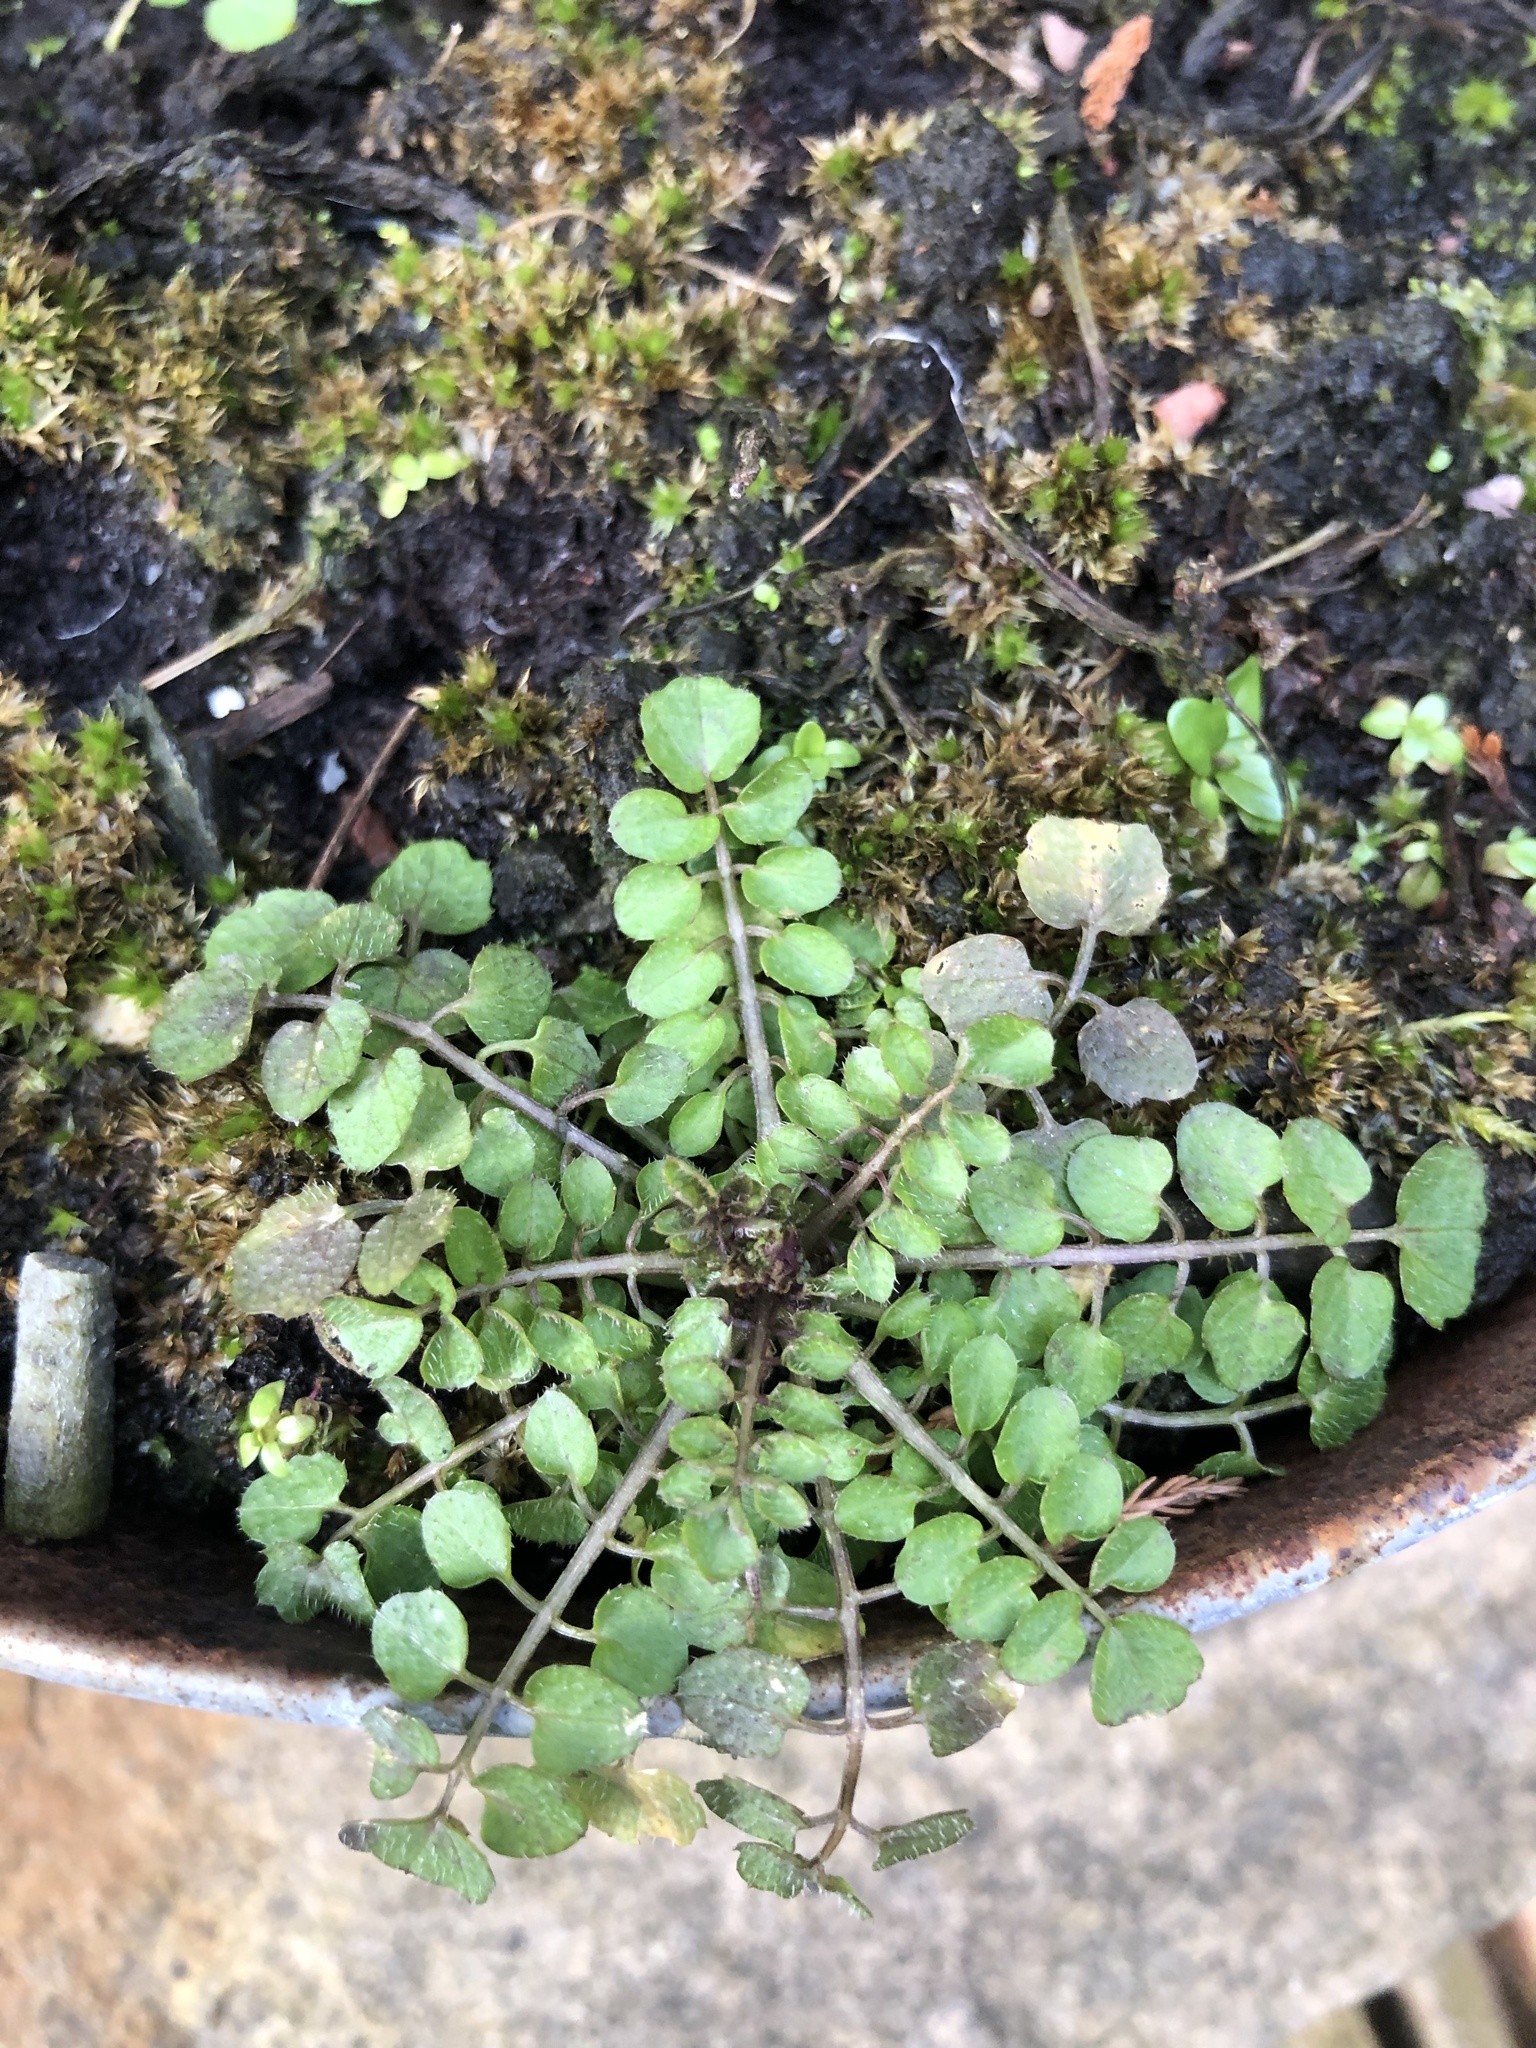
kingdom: Plantae
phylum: Tracheophyta
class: Magnoliopsida
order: Brassicales
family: Brassicaceae
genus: Cardamine
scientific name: Cardamine hirsuta
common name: Hairy bittercress
